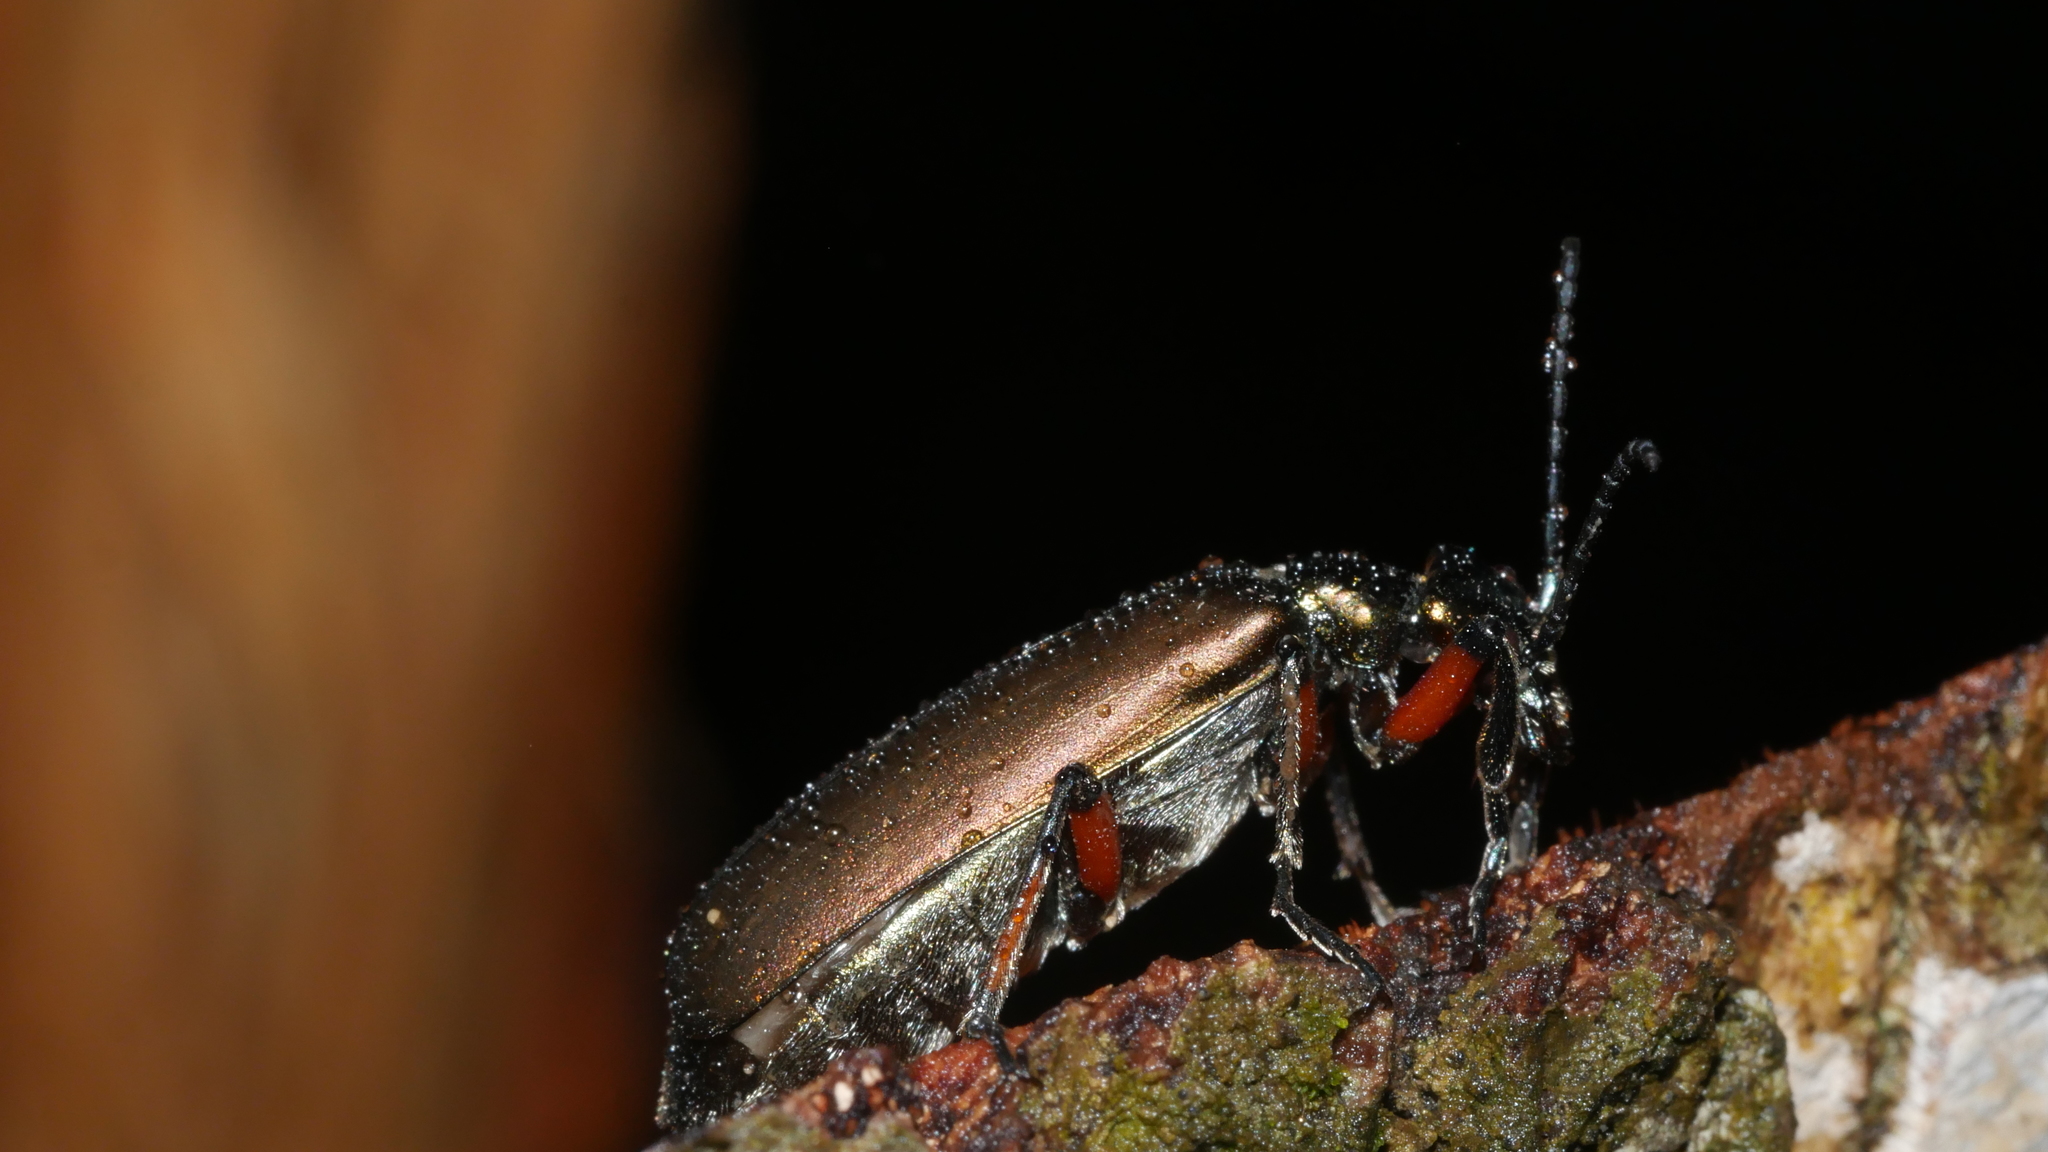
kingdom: Animalia
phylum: Arthropoda
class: Insecta
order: Coleoptera
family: Meloidae
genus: Lytta
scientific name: Lytta polita
